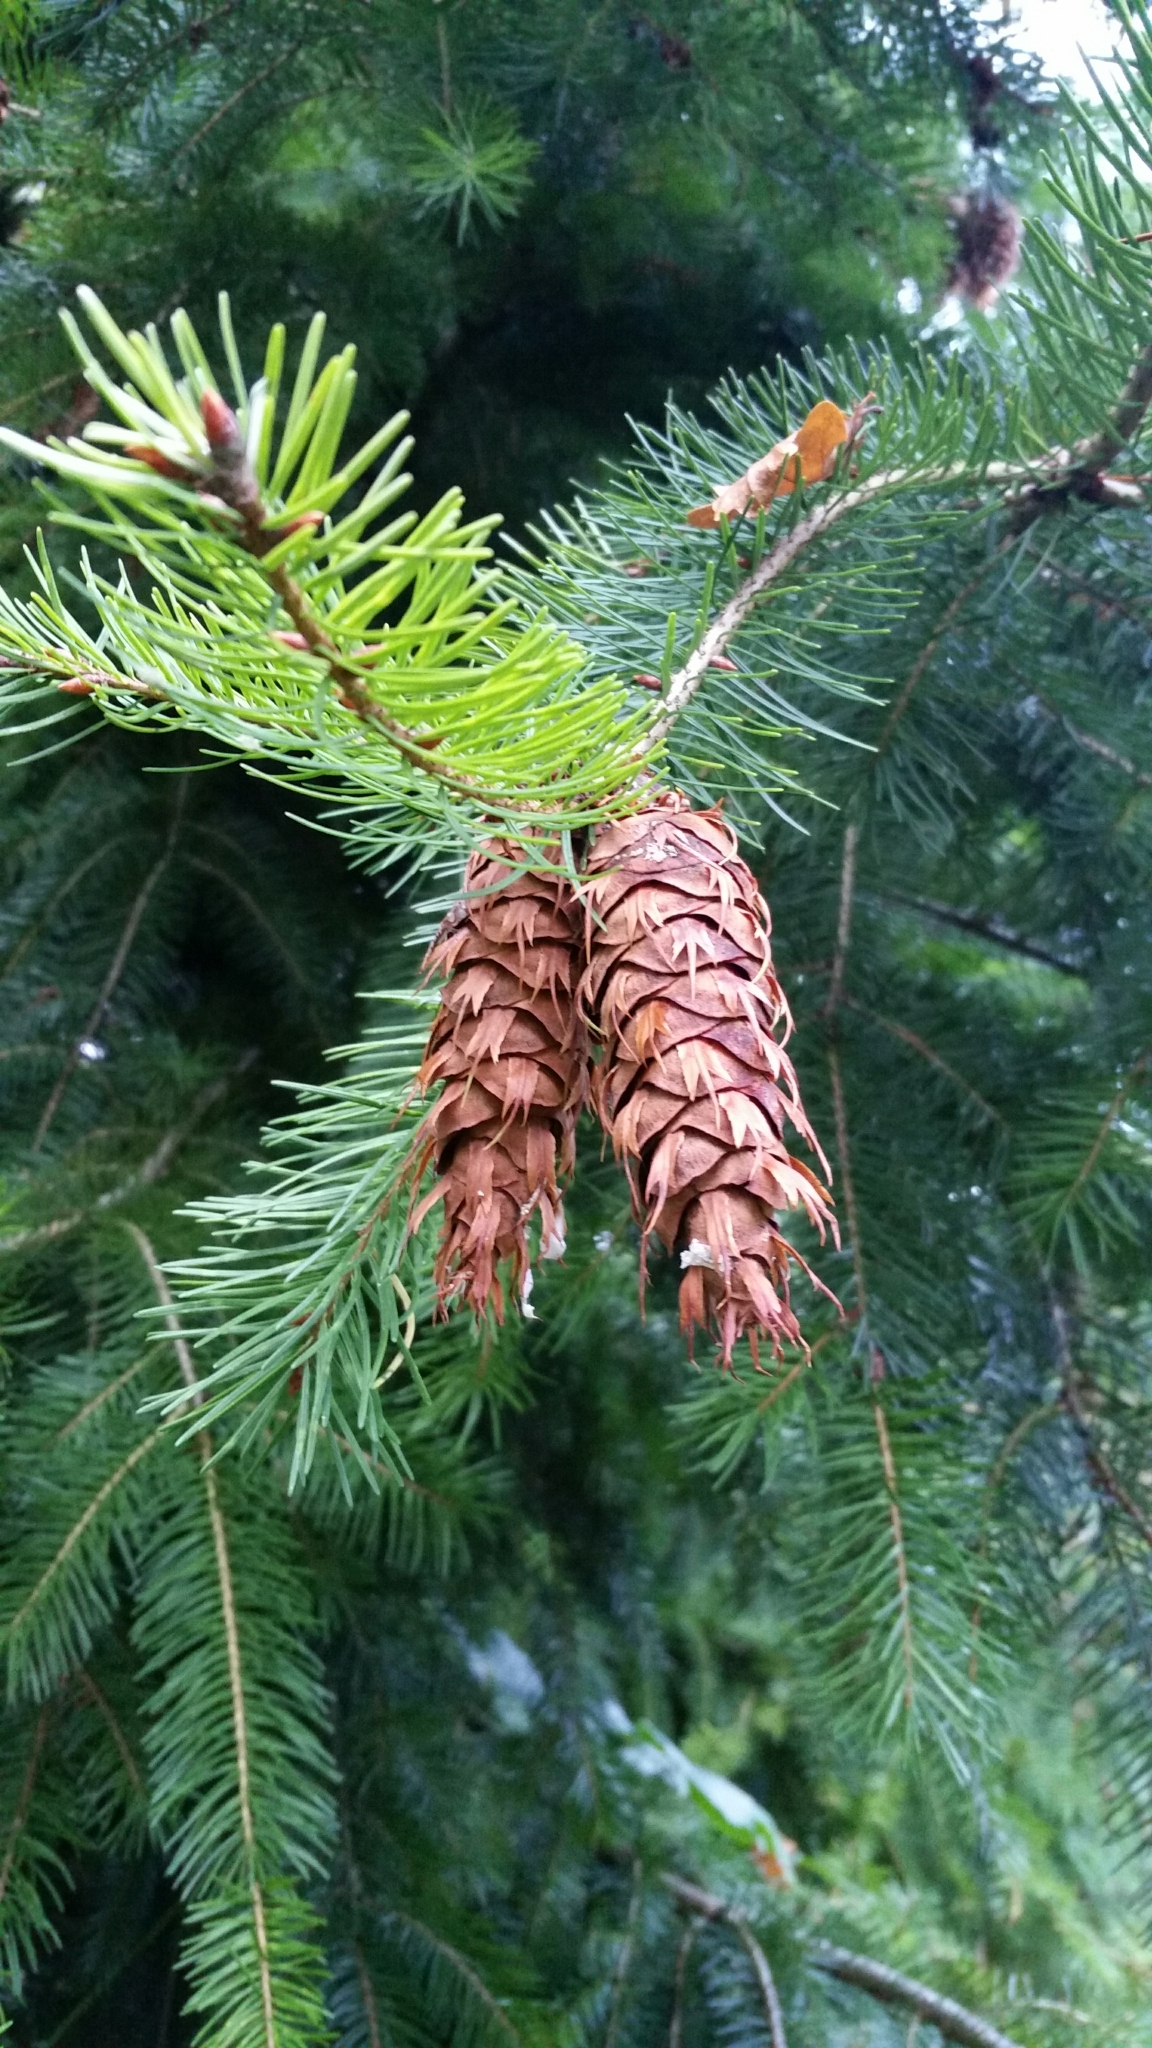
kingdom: Plantae
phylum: Tracheophyta
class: Pinopsida
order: Pinales
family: Pinaceae
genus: Picea
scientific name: Picea sitchensis
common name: Sitka spruce
